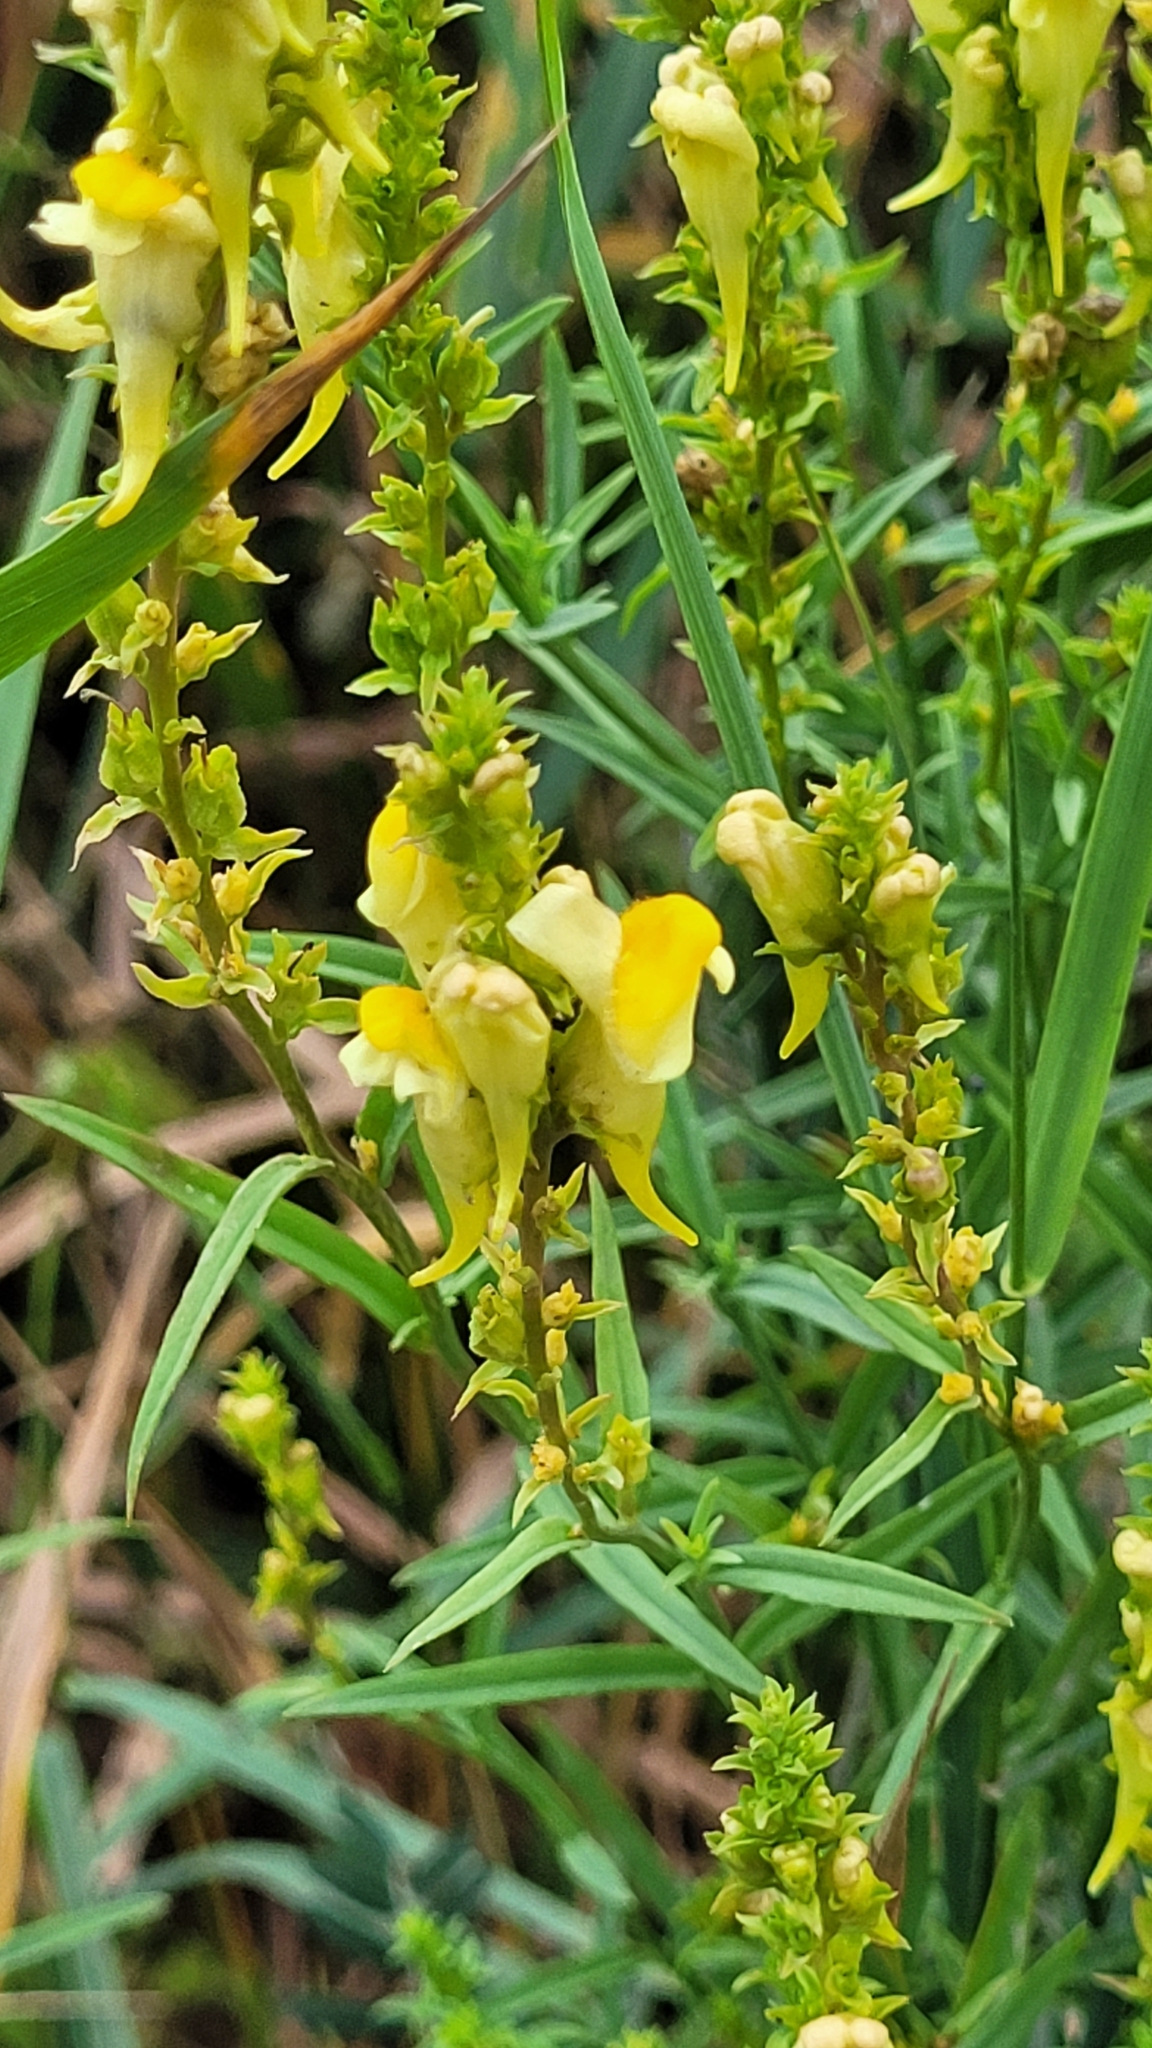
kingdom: Plantae
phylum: Tracheophyta
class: Magnoliopsida
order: Lamiales
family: Plantaginaceae
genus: Linaria
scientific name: Linaria vulgaris
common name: Butter and eggs
